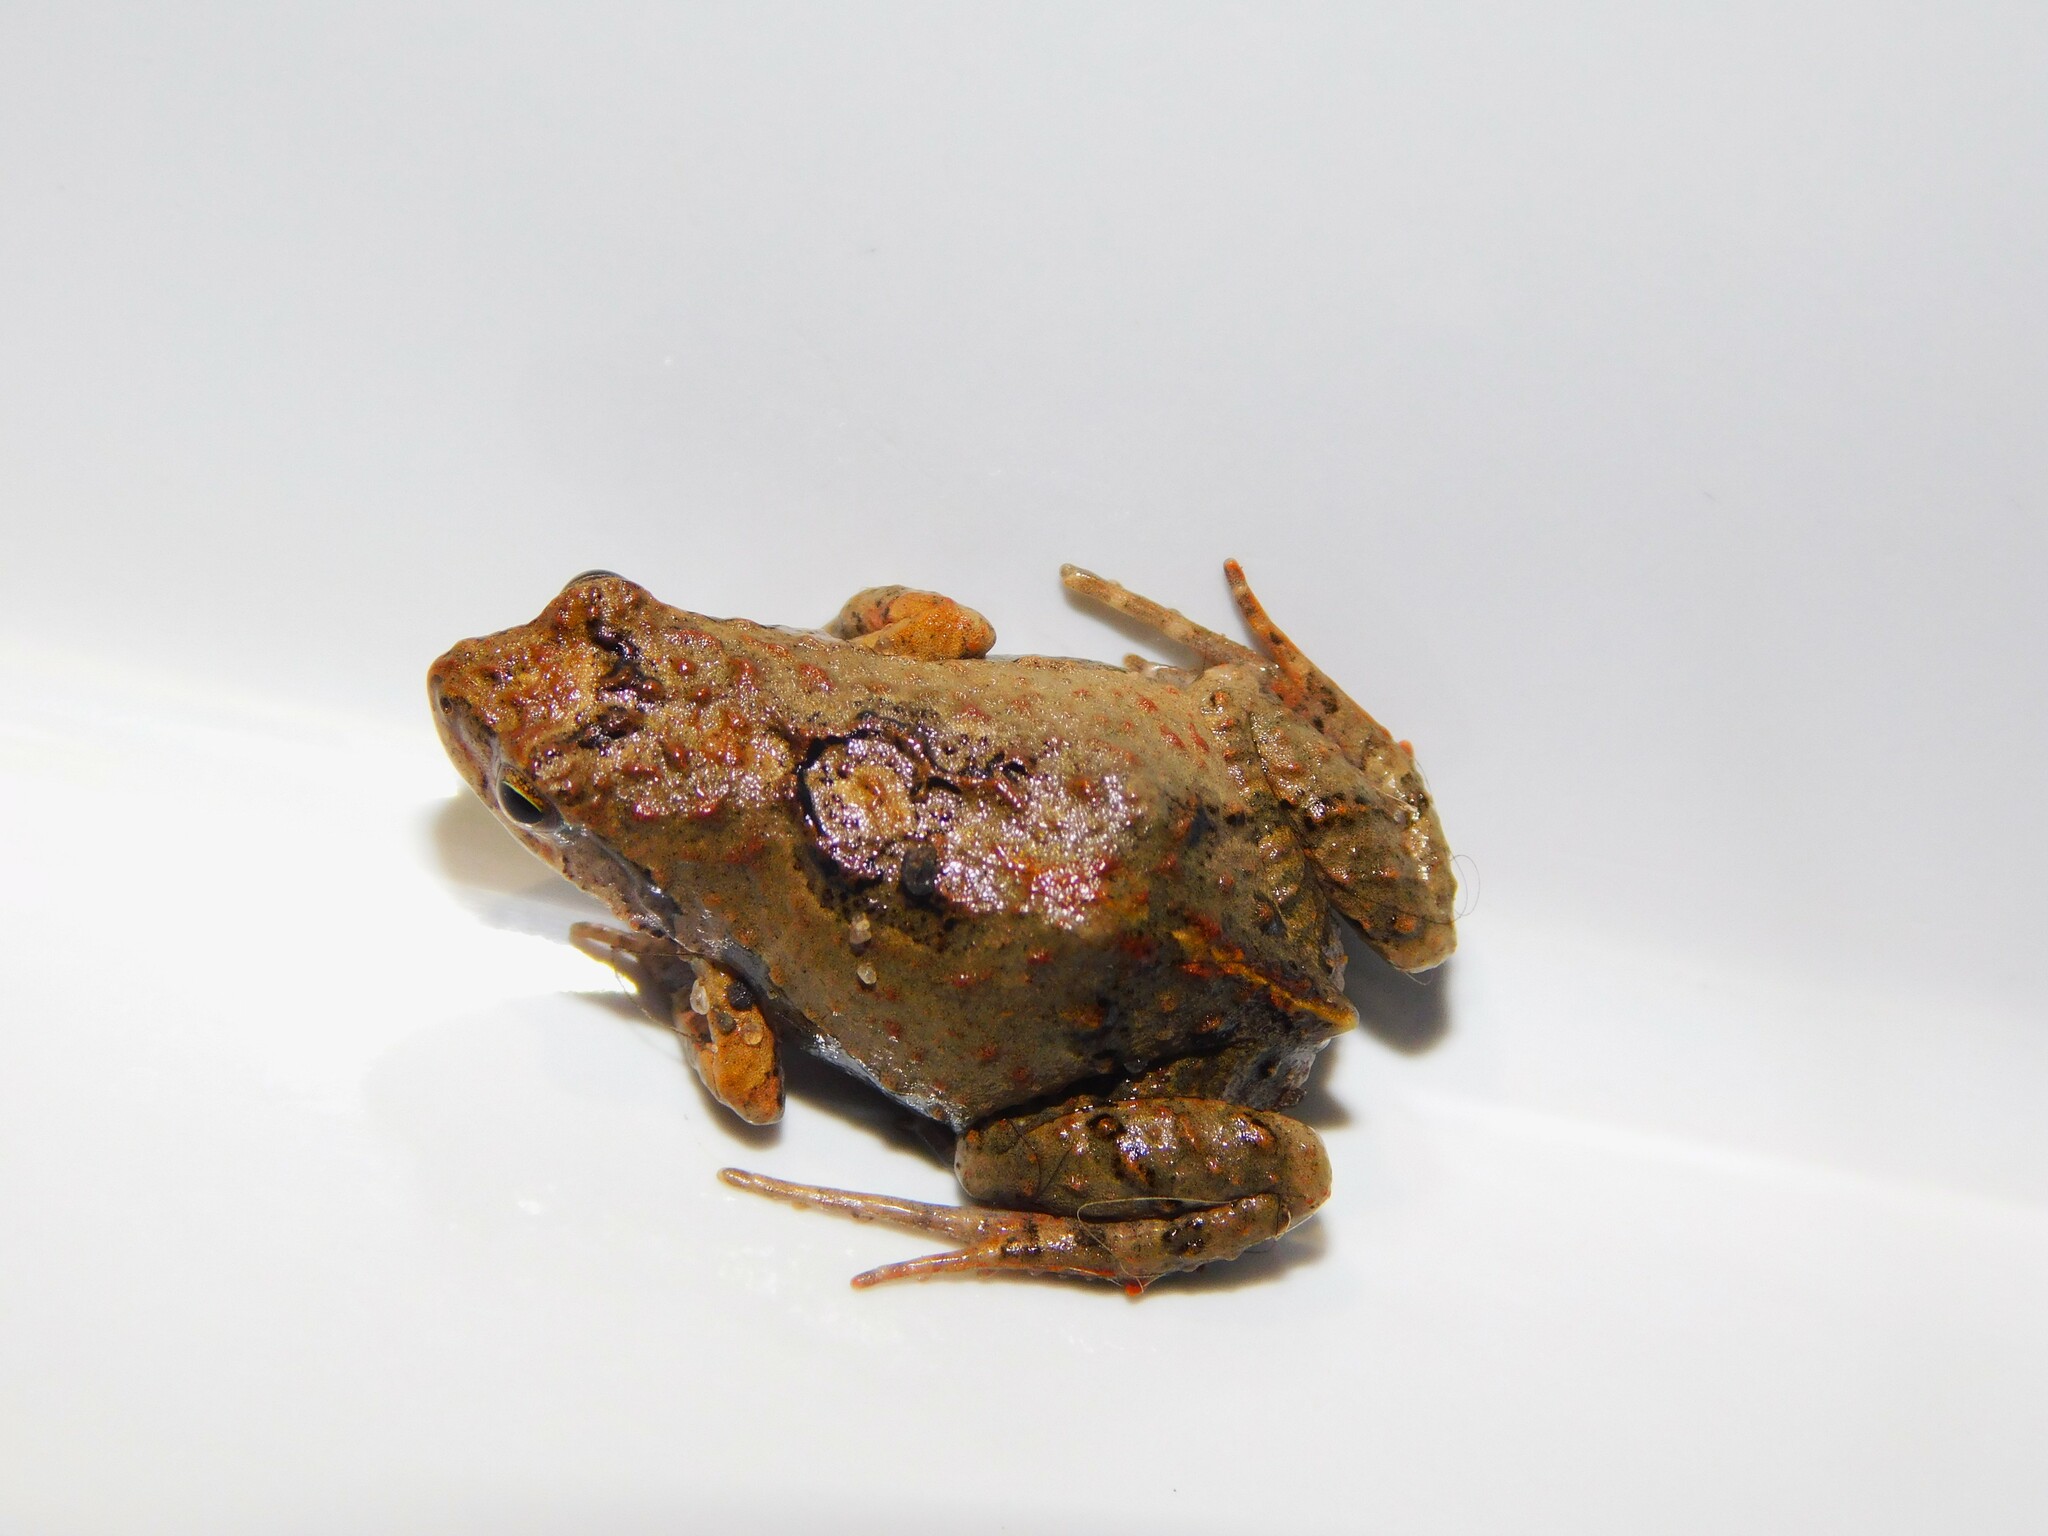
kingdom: Animalia
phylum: Chordata
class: Amphibia
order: Anura
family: Leptodactylidae
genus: Physalaemus
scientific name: Physalaemus riograndensis
